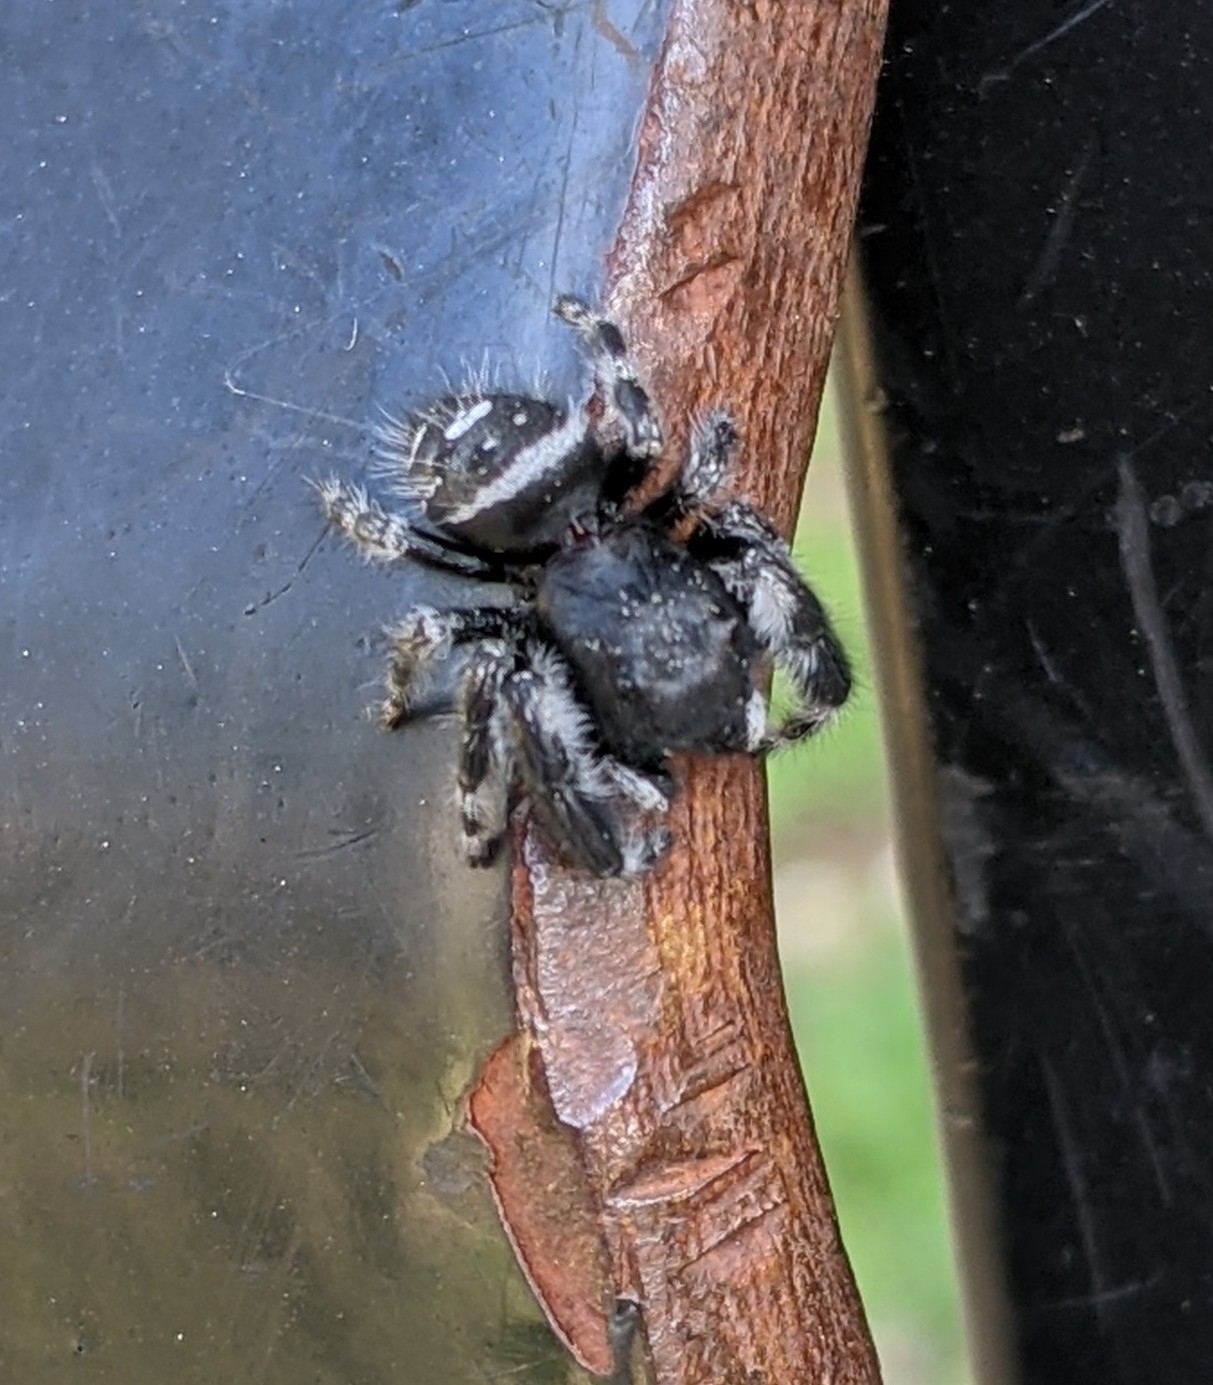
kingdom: Animalia
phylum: Arthropoda
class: Arachnida
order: Araneae
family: Salticidae
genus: Phidippus
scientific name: Phidippus audax
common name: Bold jumper
